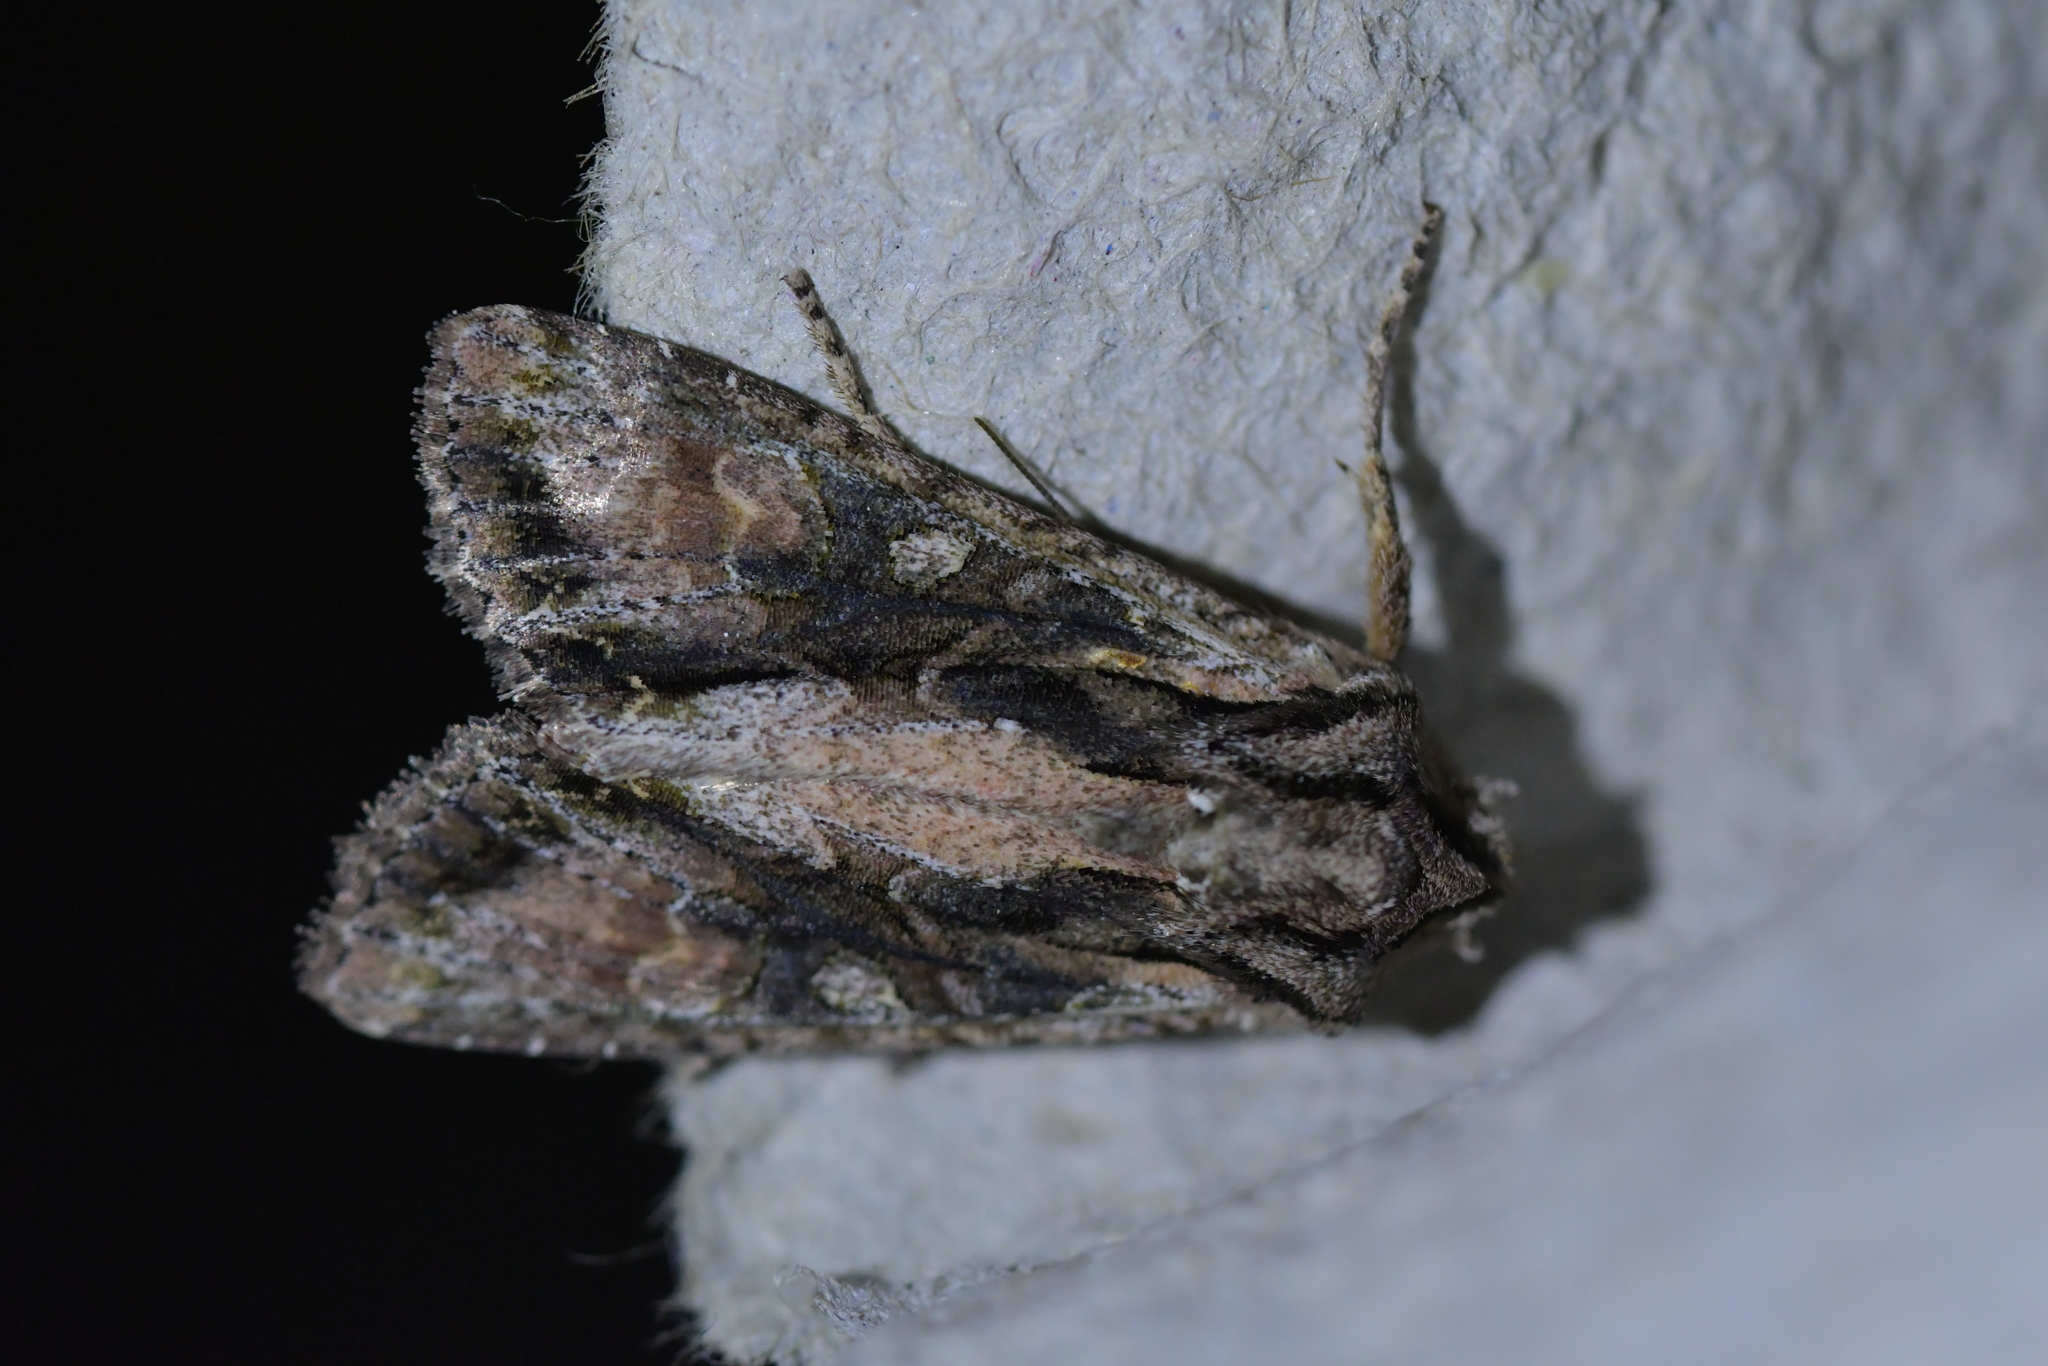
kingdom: Animalia
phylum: Arthropoda
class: Insecta
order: Lepidoptera
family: Noctuidae
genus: Ichneutica
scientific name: Ichneutica mutans
